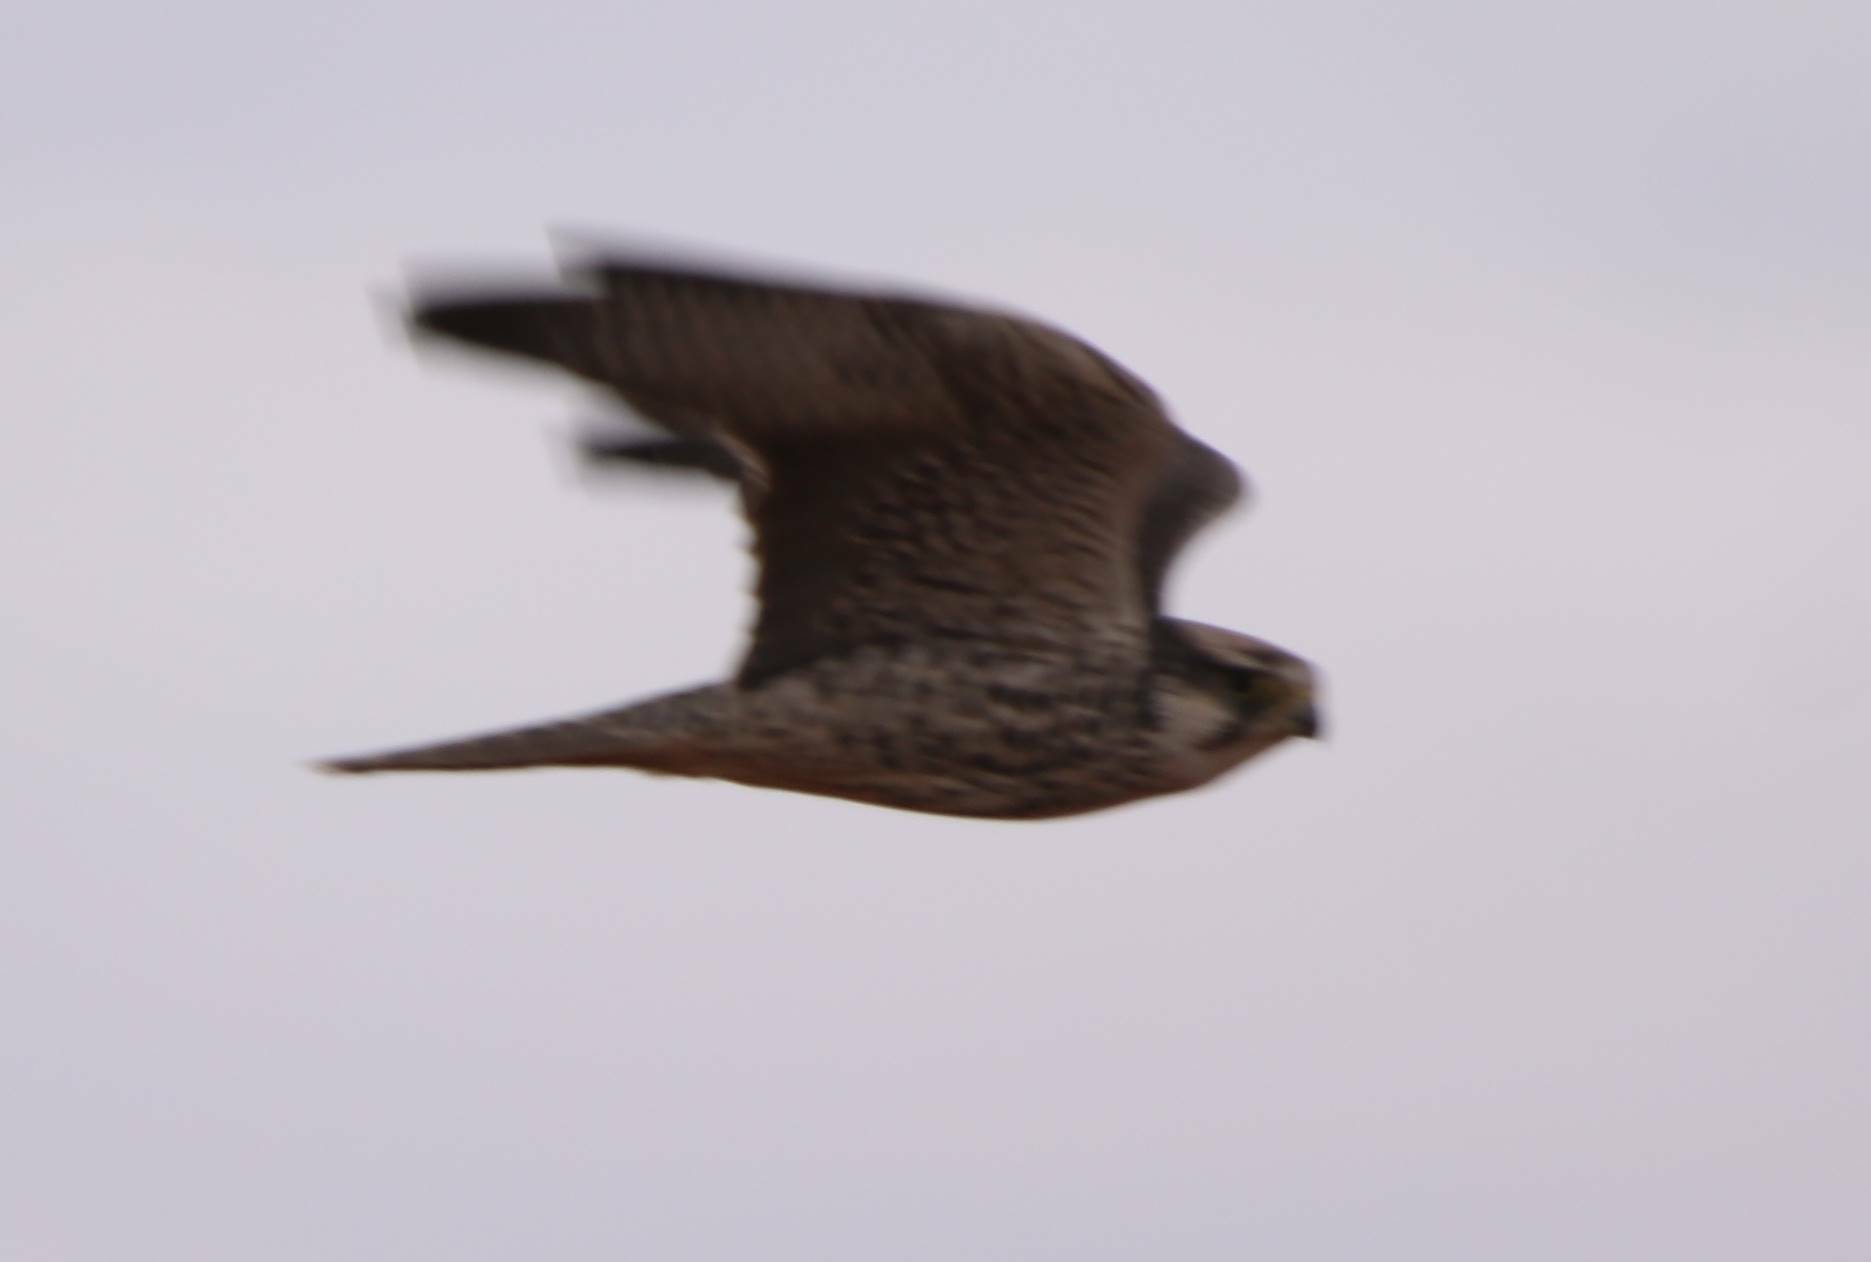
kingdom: Animalia
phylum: Chordata
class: Aves
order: Falconiformes
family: Falconidae
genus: Falco
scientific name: Falco biarmicus
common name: Lanner falcon
